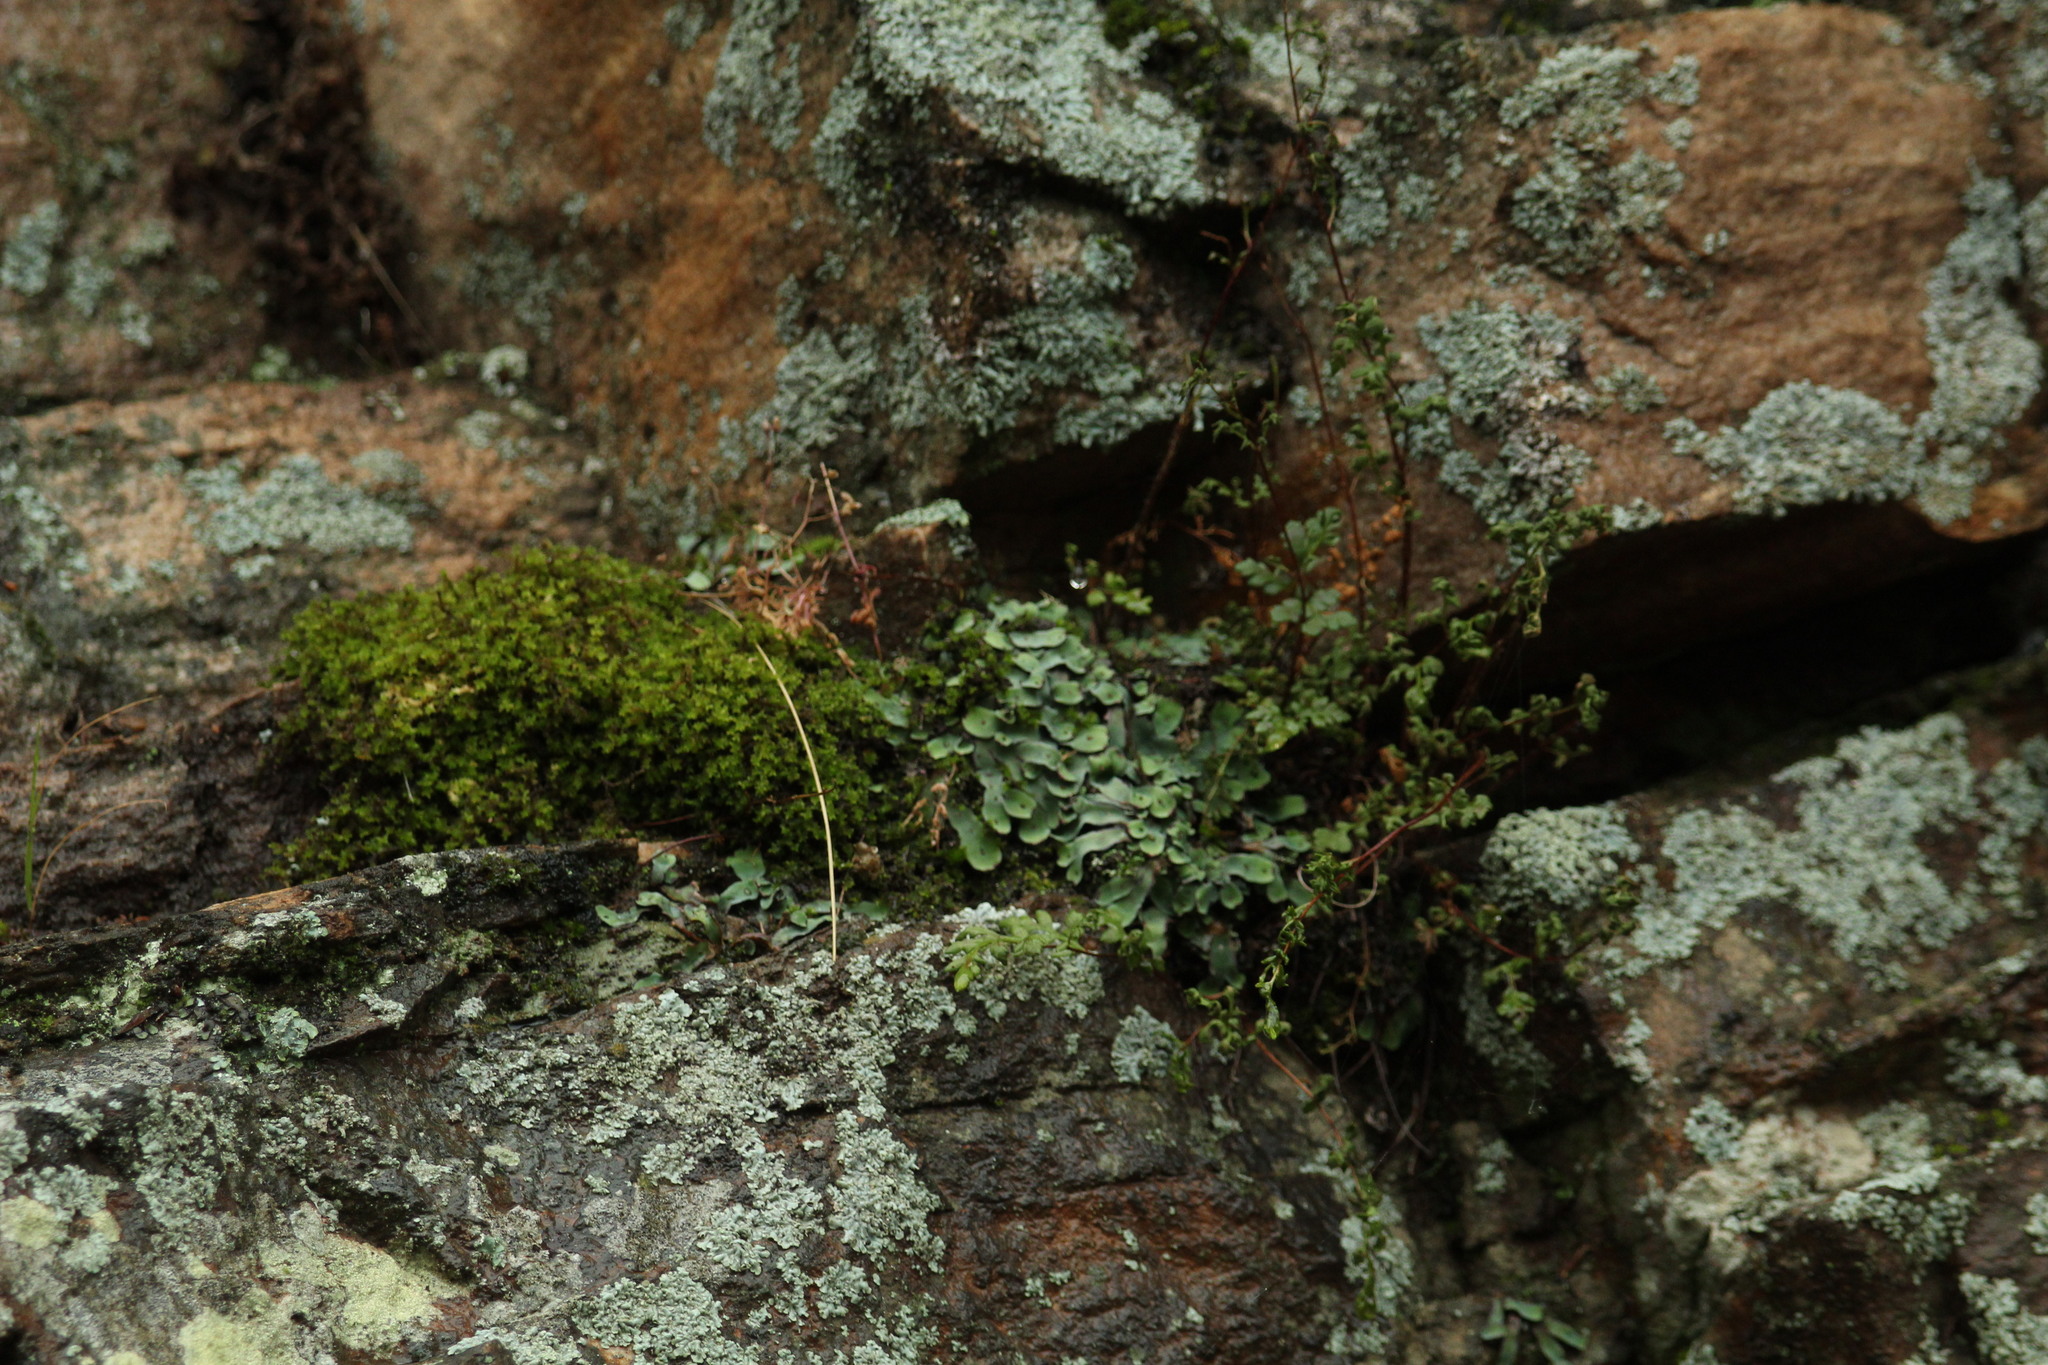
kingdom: Plantae
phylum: Marchantiophyta
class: Marchantiopsida
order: Marchantiales
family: Aytoniaceae
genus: Plagiochasma
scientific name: Plagiochasma rupestre
